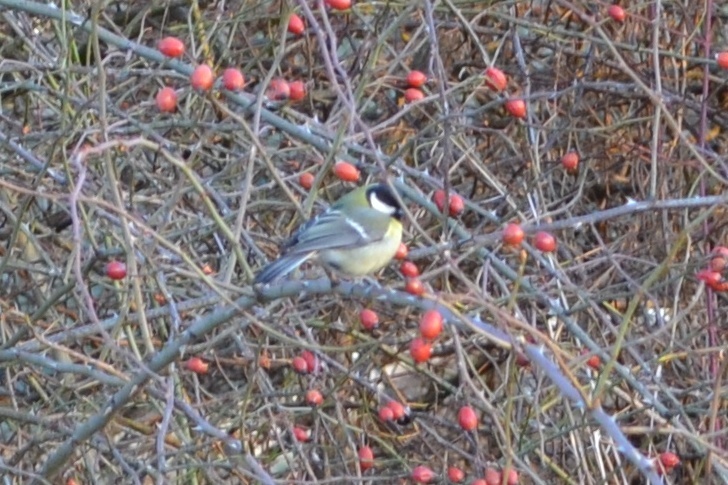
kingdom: Animalia
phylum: Chordata
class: Aves
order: Passeriformes
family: Paridae
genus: Parus
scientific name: Parus major
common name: Great tit
